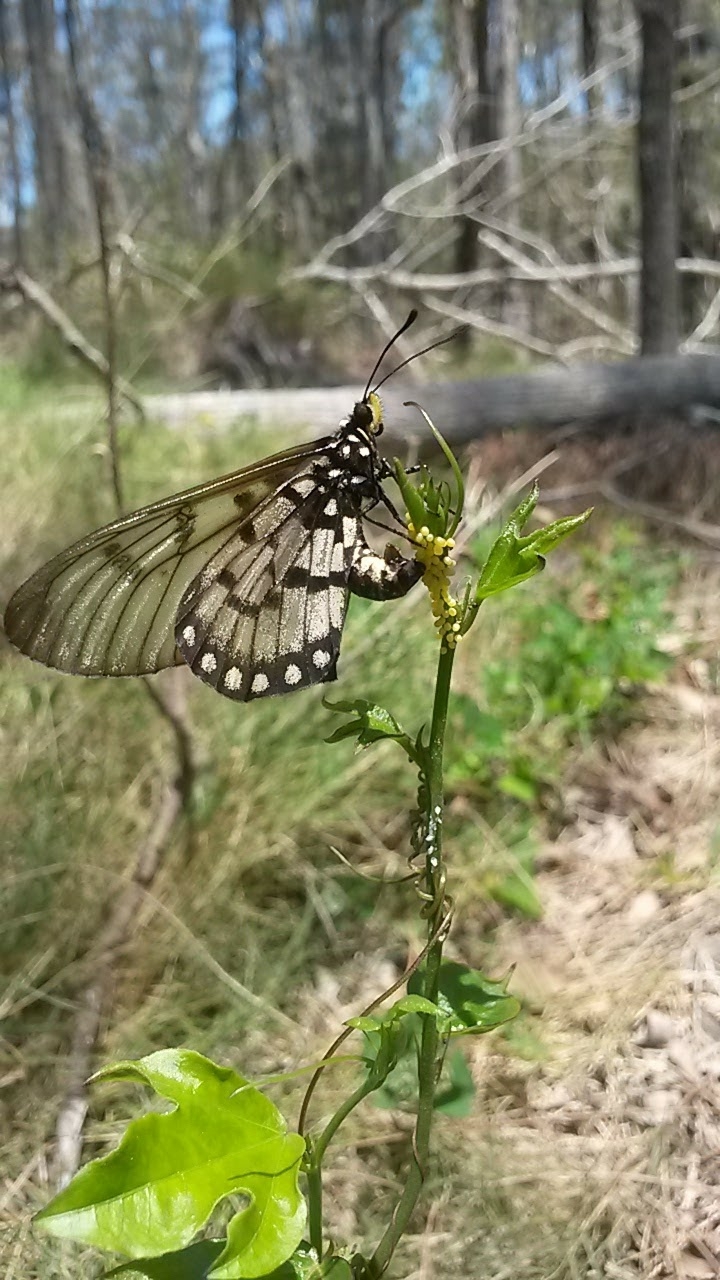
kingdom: Animalia
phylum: Arthropoda
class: Insecta
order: Lepidoptera
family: Nymphalidae
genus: Acraea
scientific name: Acraea andromacha
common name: Glasswing
